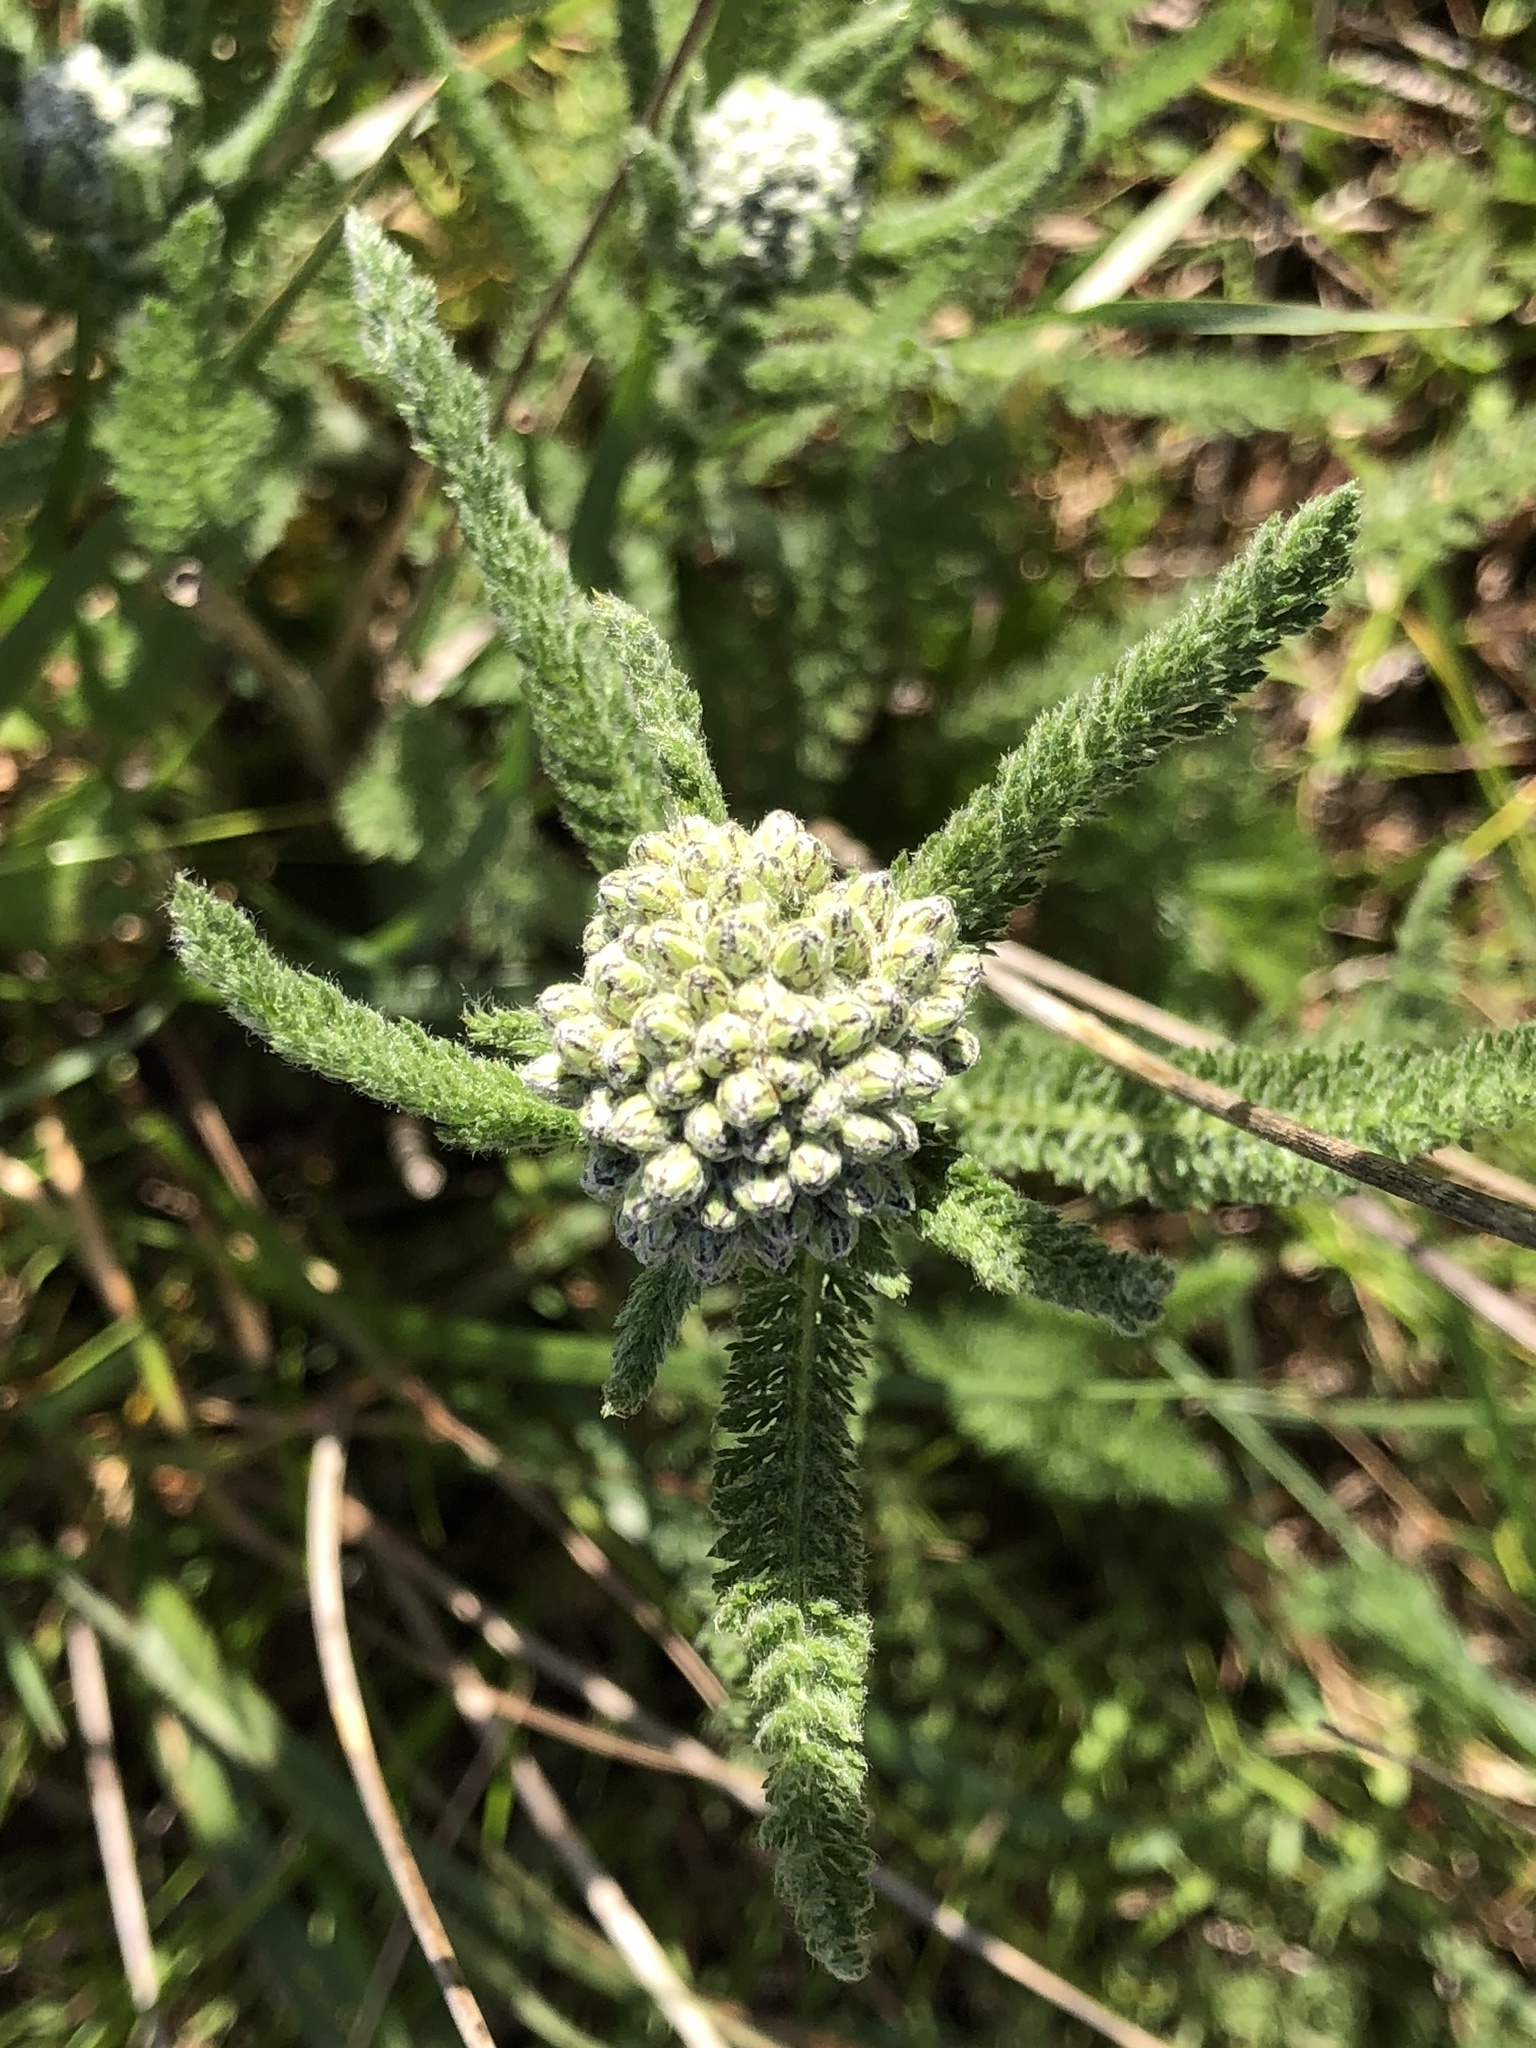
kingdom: Plantae
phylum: Tracheophyta
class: Magnoliopsida
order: Asterales
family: Asteraceae
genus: Achillea
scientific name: Achillea millefolium
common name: Yarrow
